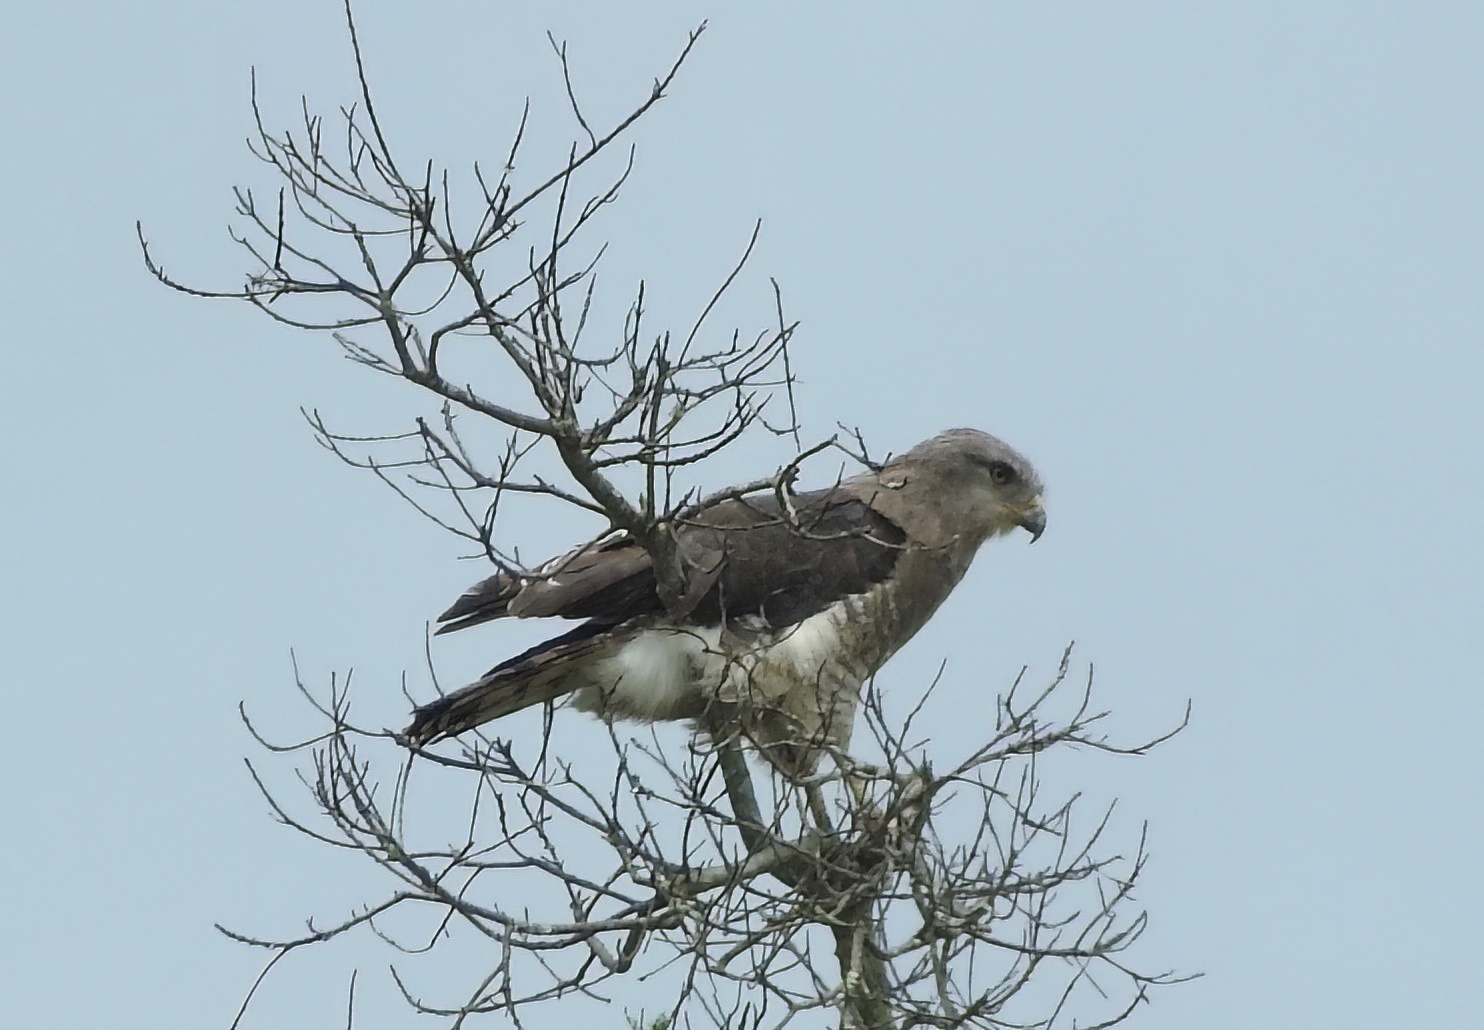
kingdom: Animalia
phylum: Chordata
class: Aves
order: Accipitriformes
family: Accipitridae
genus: Circaetus
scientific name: Circaetus fasciolatus
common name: Southern banded snake eagle
